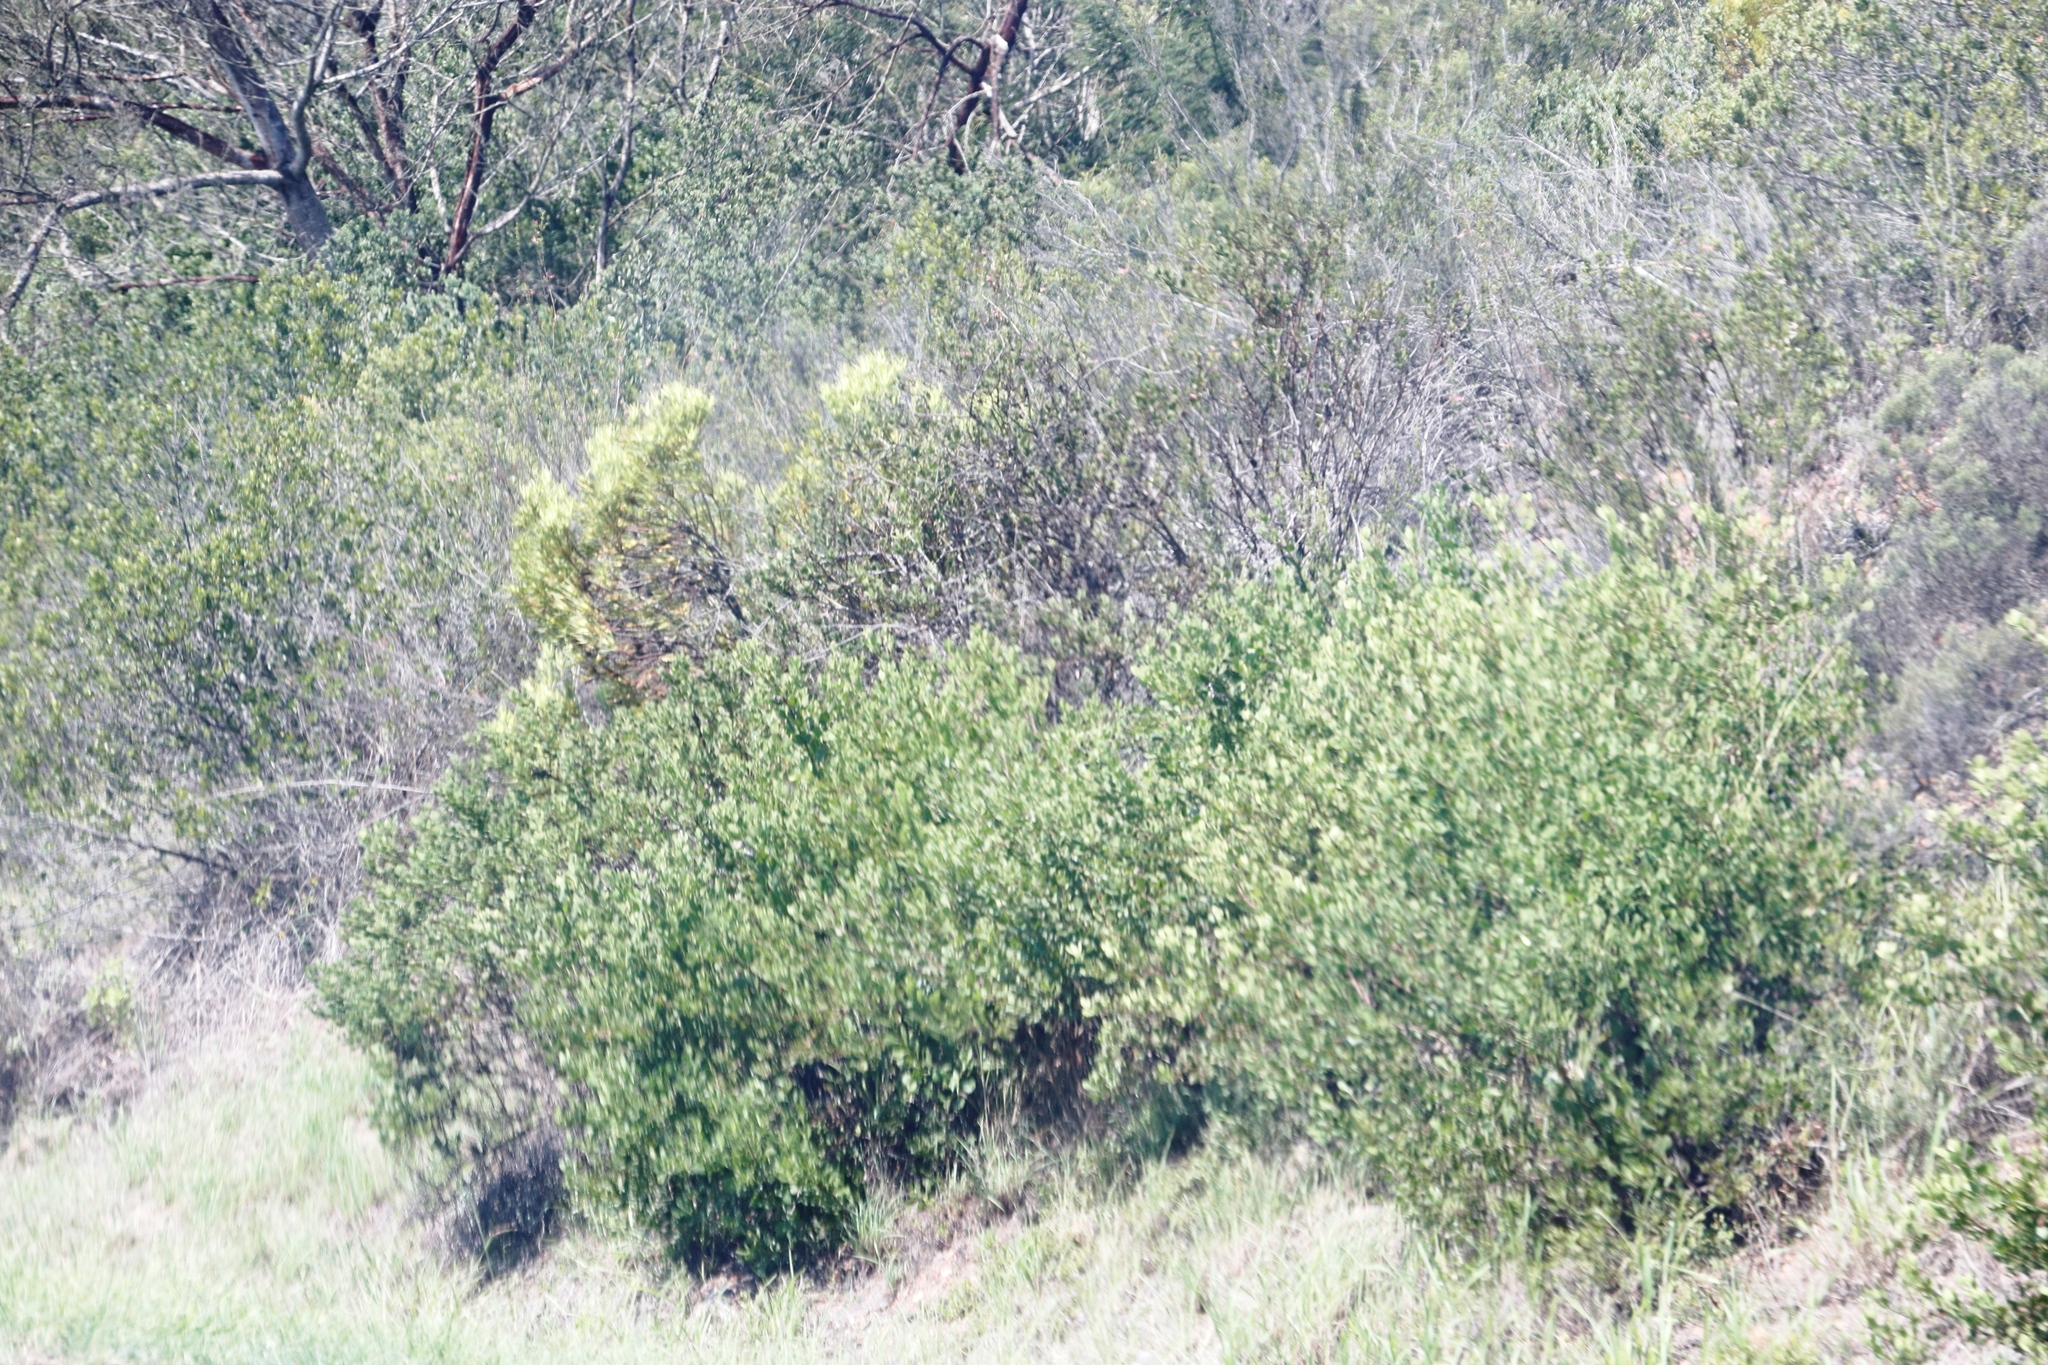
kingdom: Plantae
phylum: Tracheophyta
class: Magnoliopsida
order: Asterales
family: Asteraceae
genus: Osteospermum
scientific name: Osteospermum moniliferum
